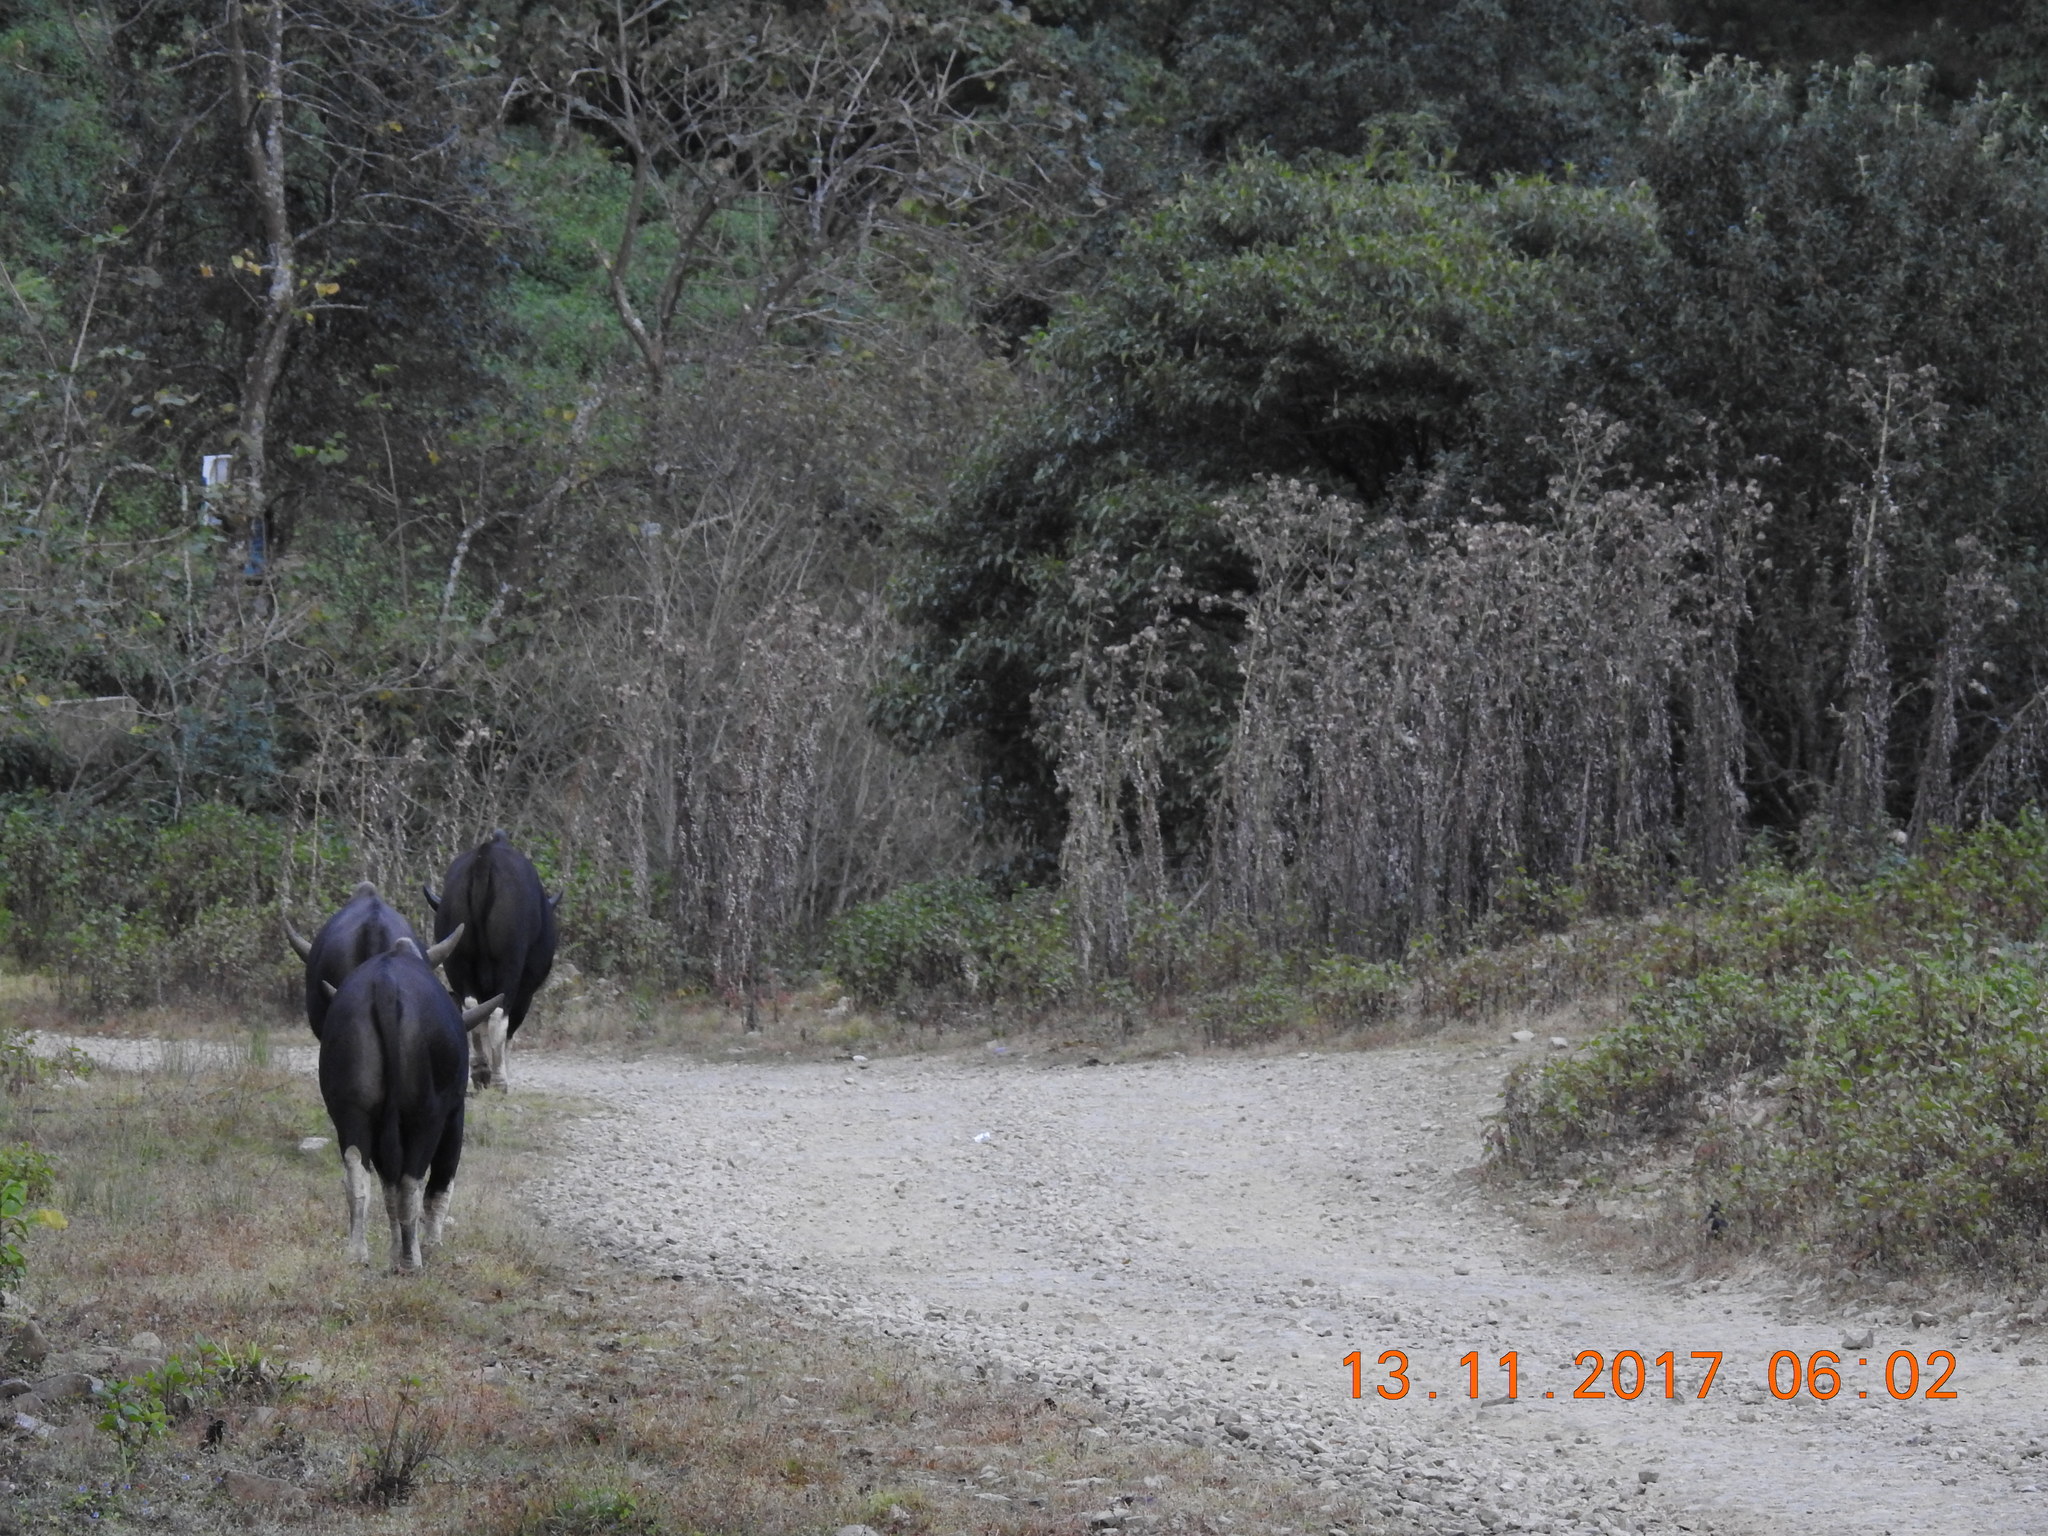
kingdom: Animalia
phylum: Chordata
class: Mammalia
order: Artiodactyla
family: Bovidae
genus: Bos
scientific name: Bos frontalis
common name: Gaur
